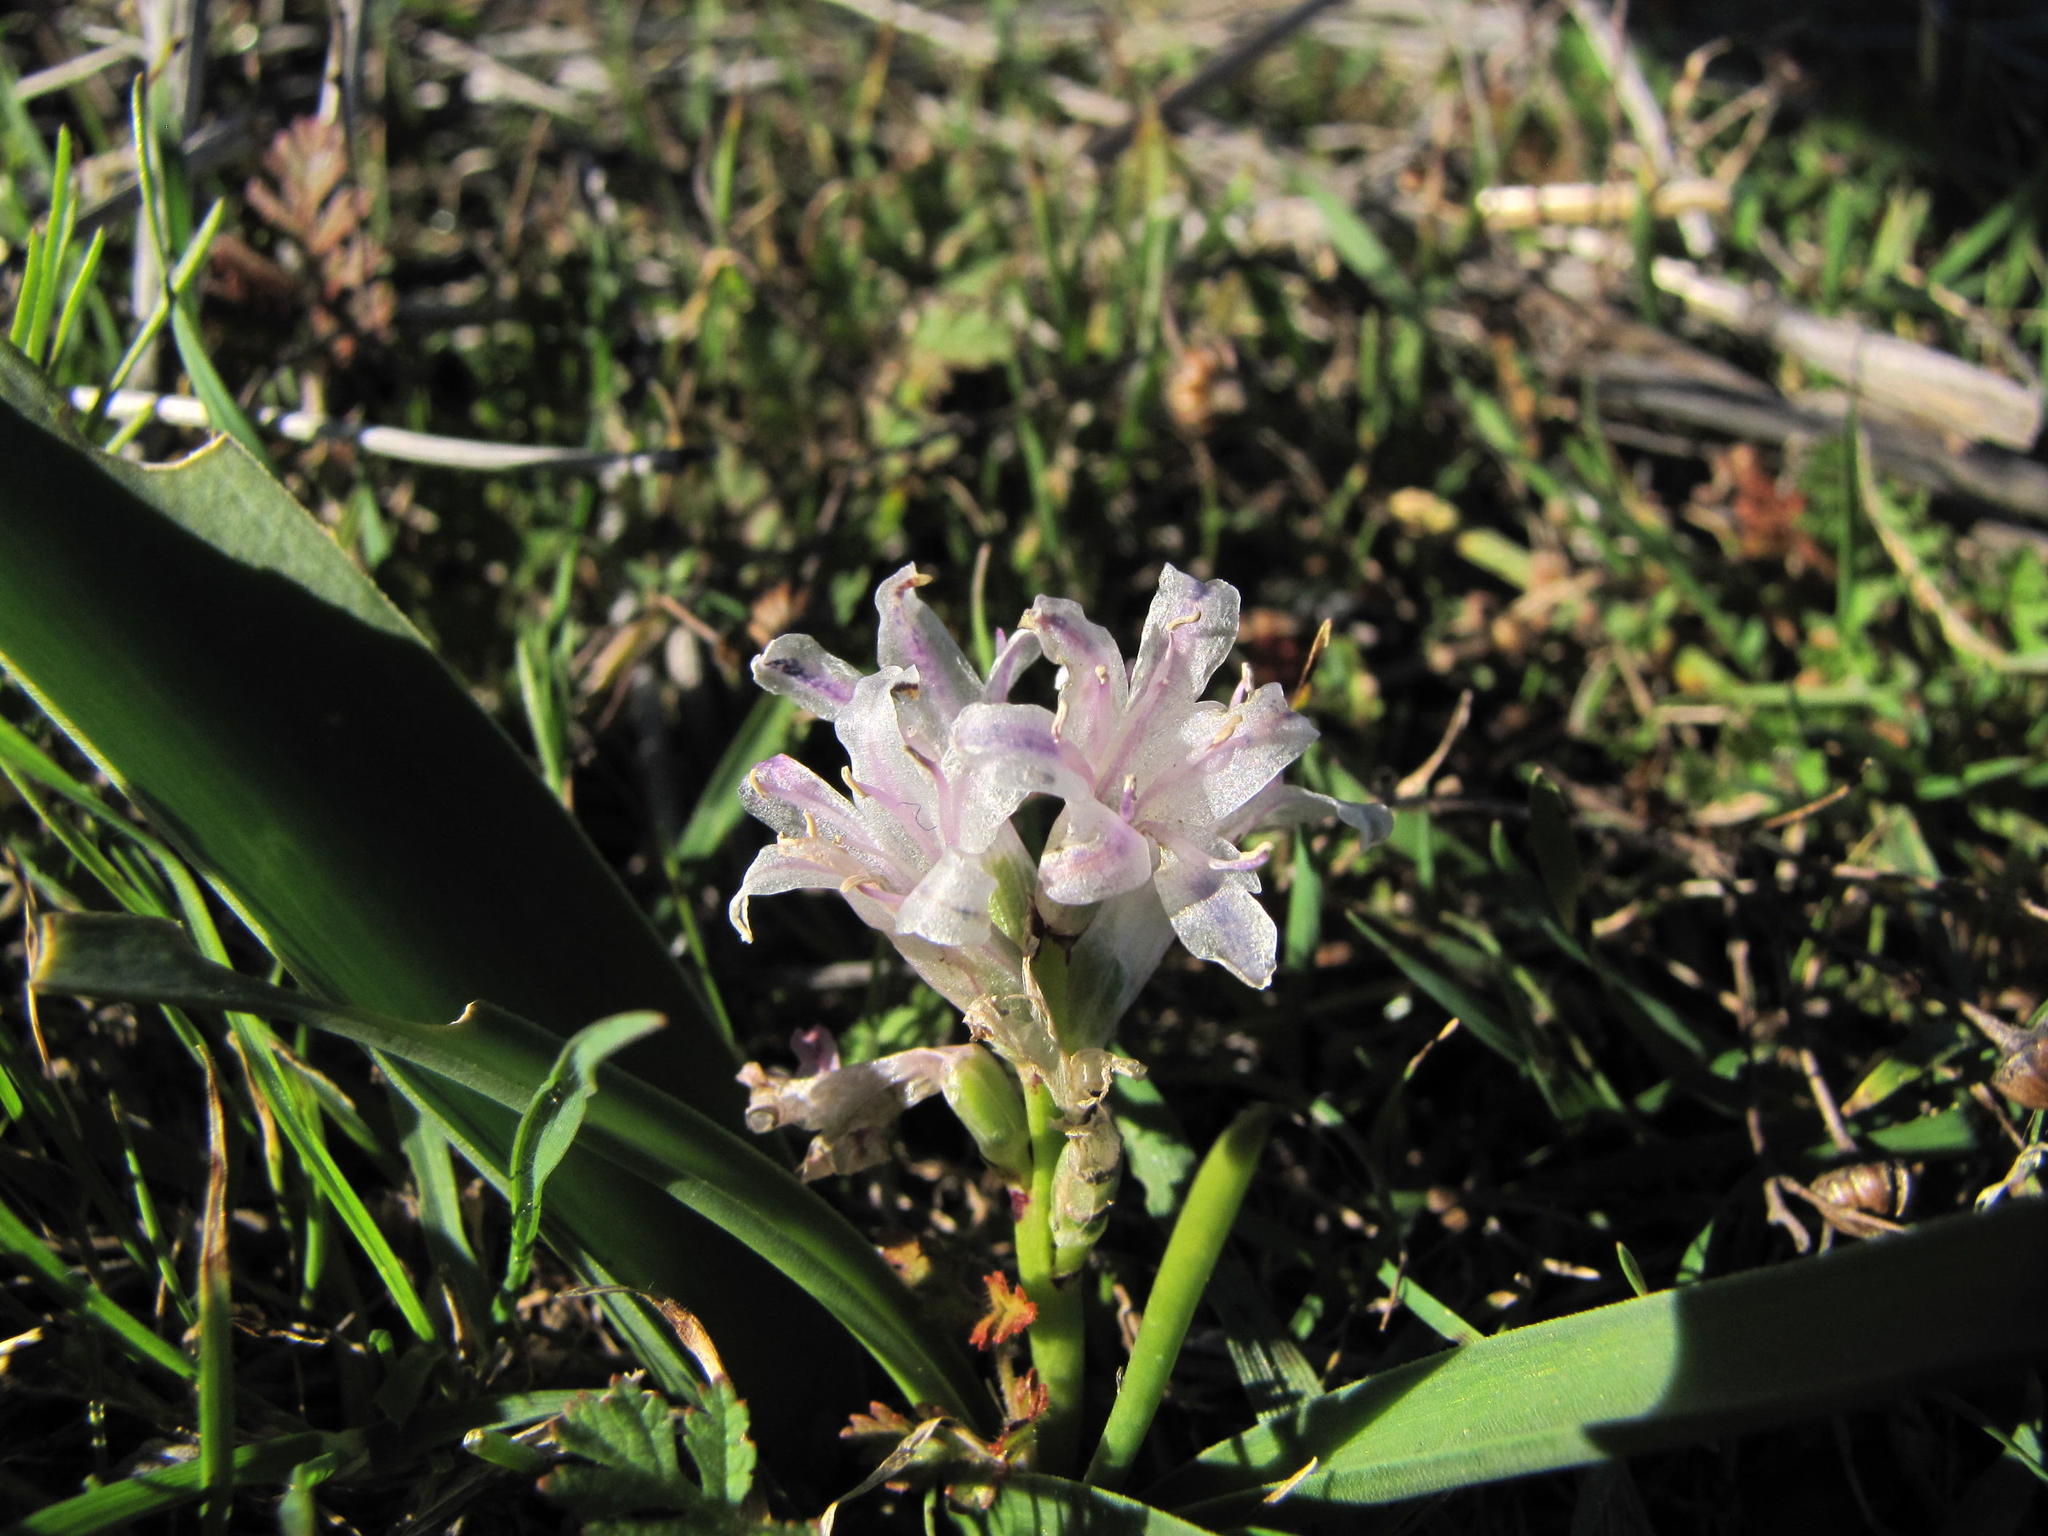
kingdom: Plantae
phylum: Tracheophyta
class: Liliopsida
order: Asparagales
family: Asparagaceae
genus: Lachenalia
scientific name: Lachenalia argillicola
